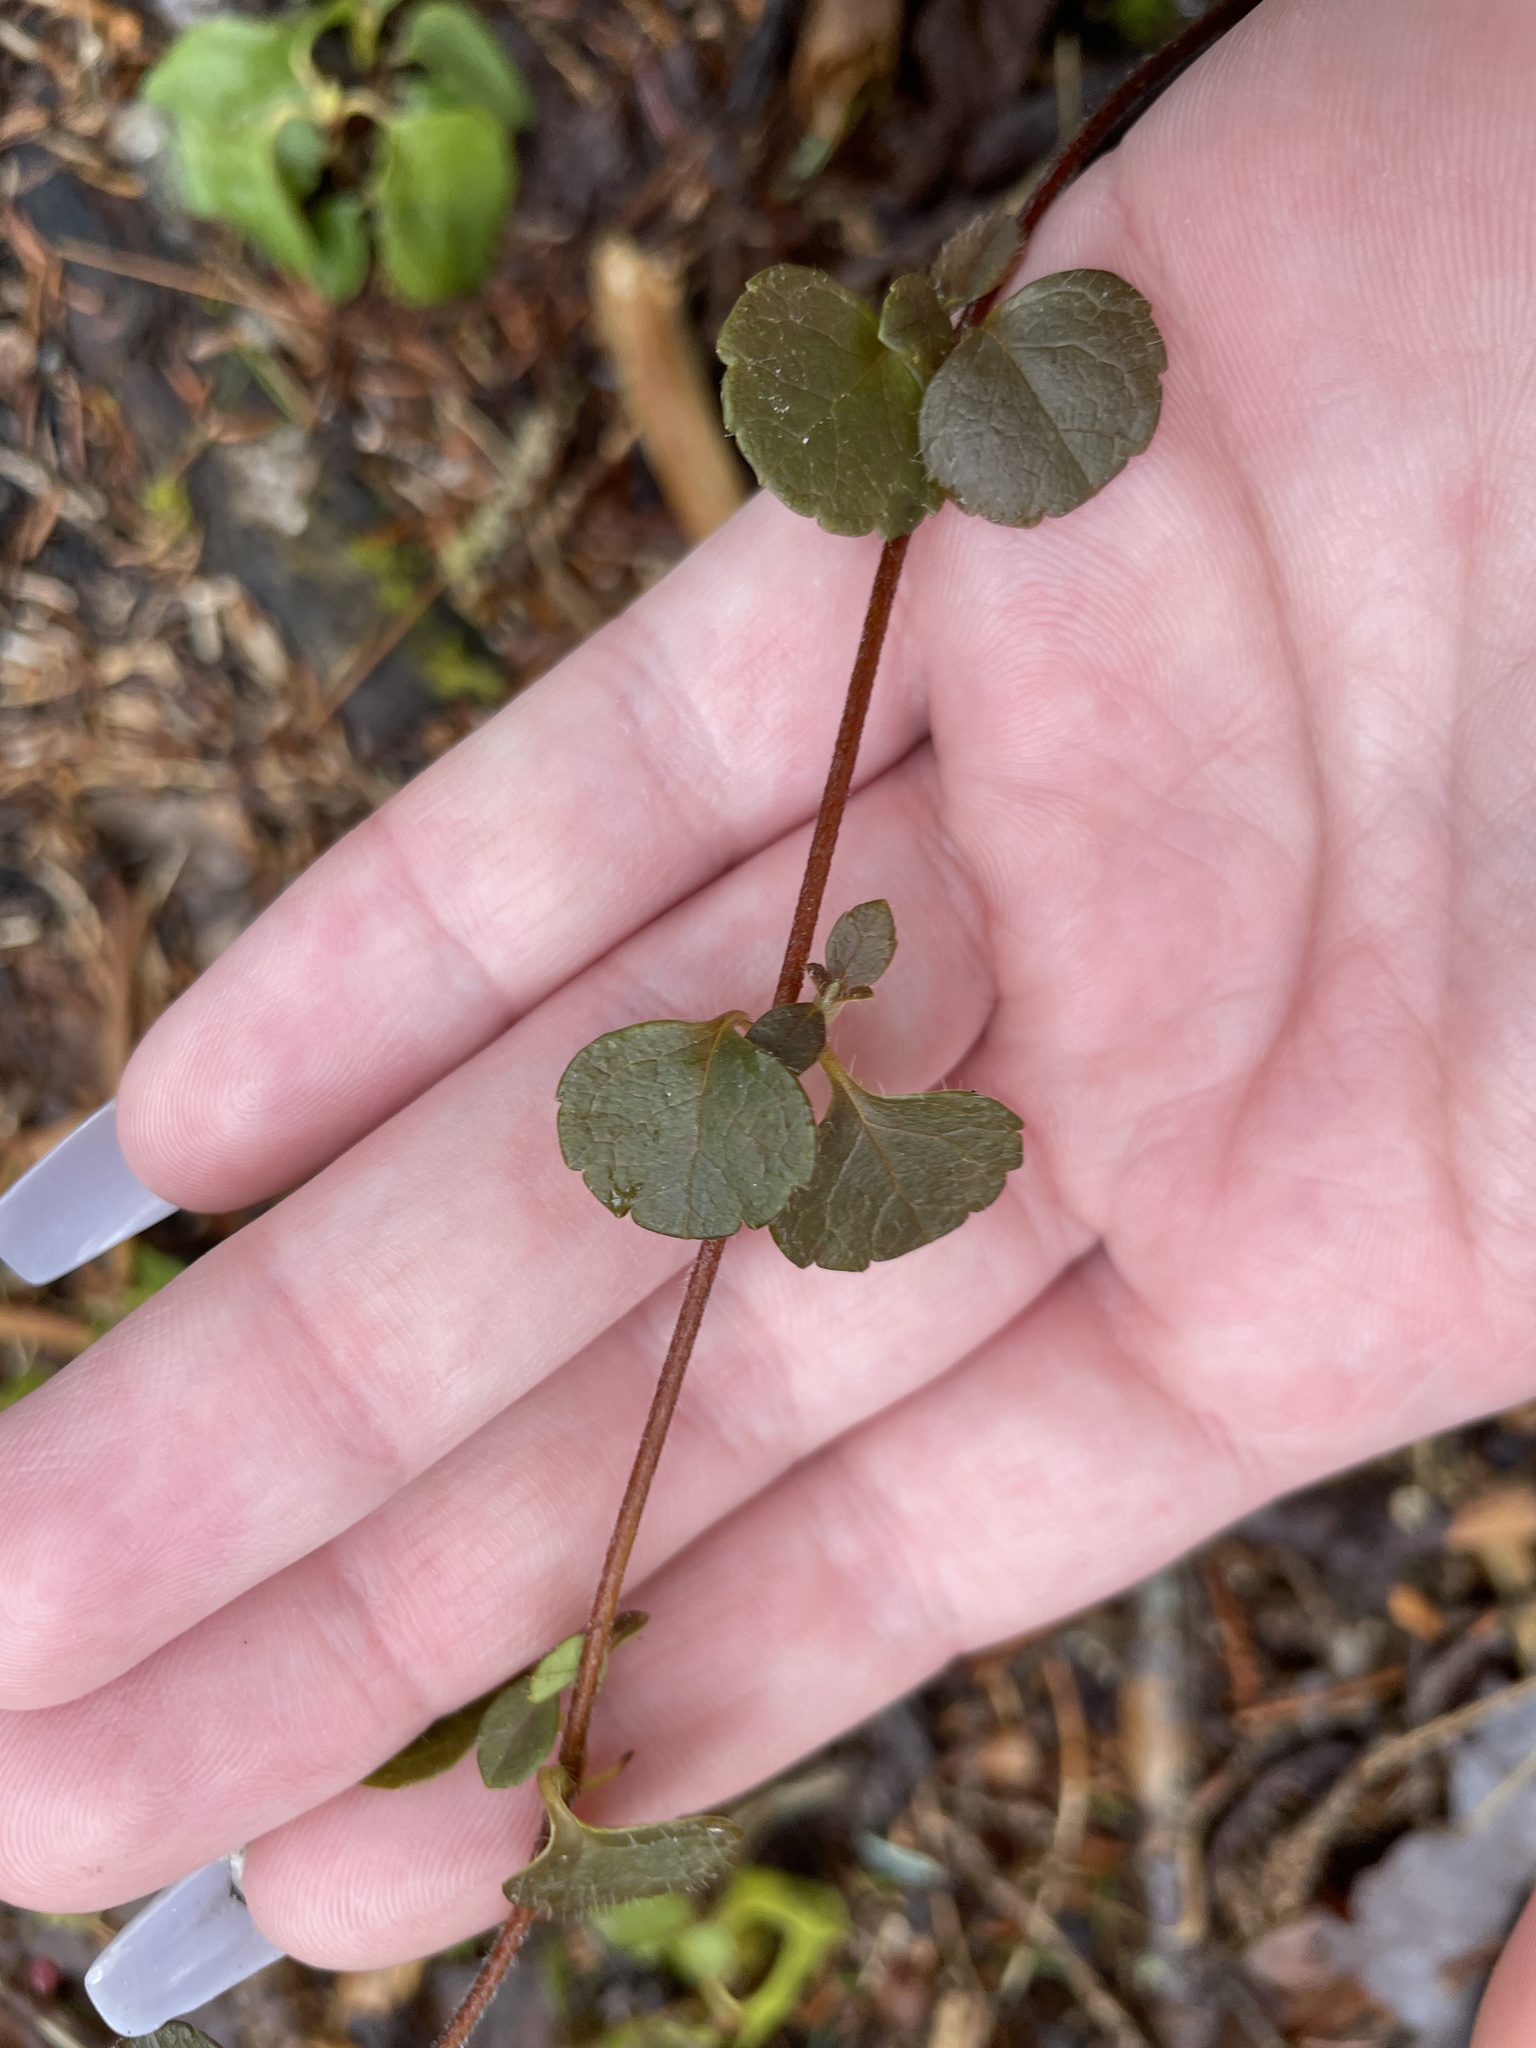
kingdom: Plantae
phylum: Tracheophyta
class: Magnoliopsida
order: Dipsacales
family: Caprifoliaceae
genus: Linnaea
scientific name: Linnaea borealis
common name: Twinflower
